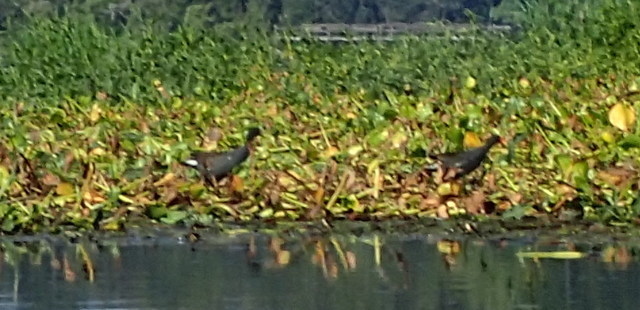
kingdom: Animalia
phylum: Chordata
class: Aves
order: Gruiformes
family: Rallidae
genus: Gallinula
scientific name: Gallinula chloropus
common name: Common moorhen
